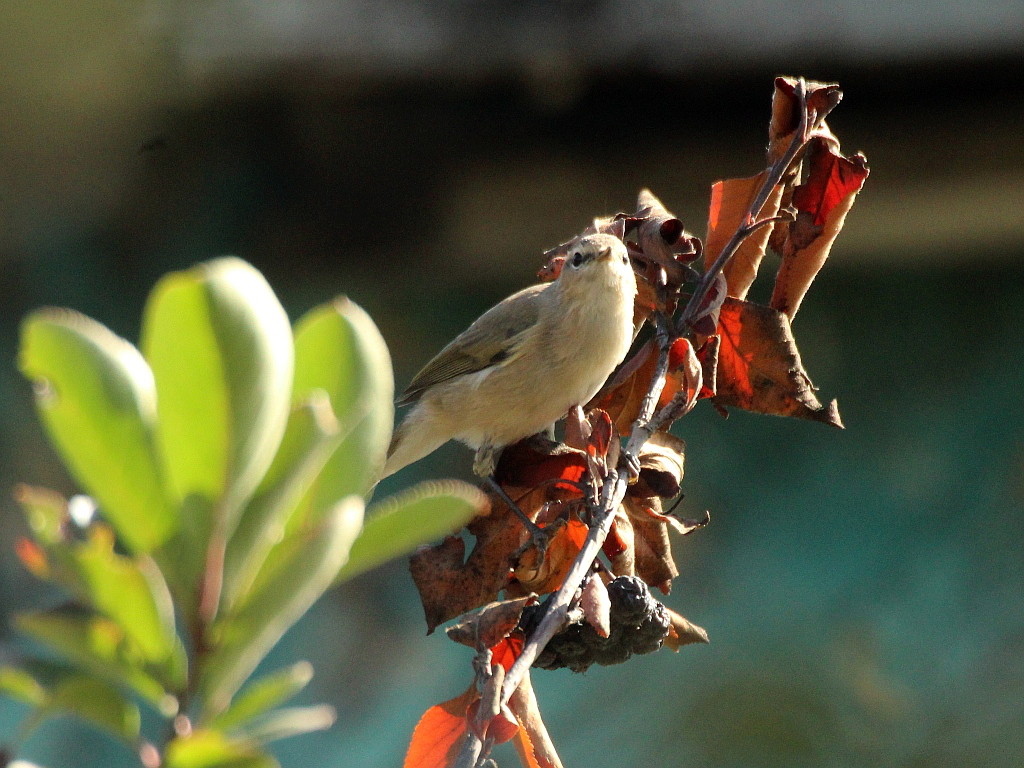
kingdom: Animalia
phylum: Chordata
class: Aves
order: Passeriformes
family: Phylloscopidae
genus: Phylloscopus
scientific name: Phylloscopus collybita
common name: Common chiffchaff
